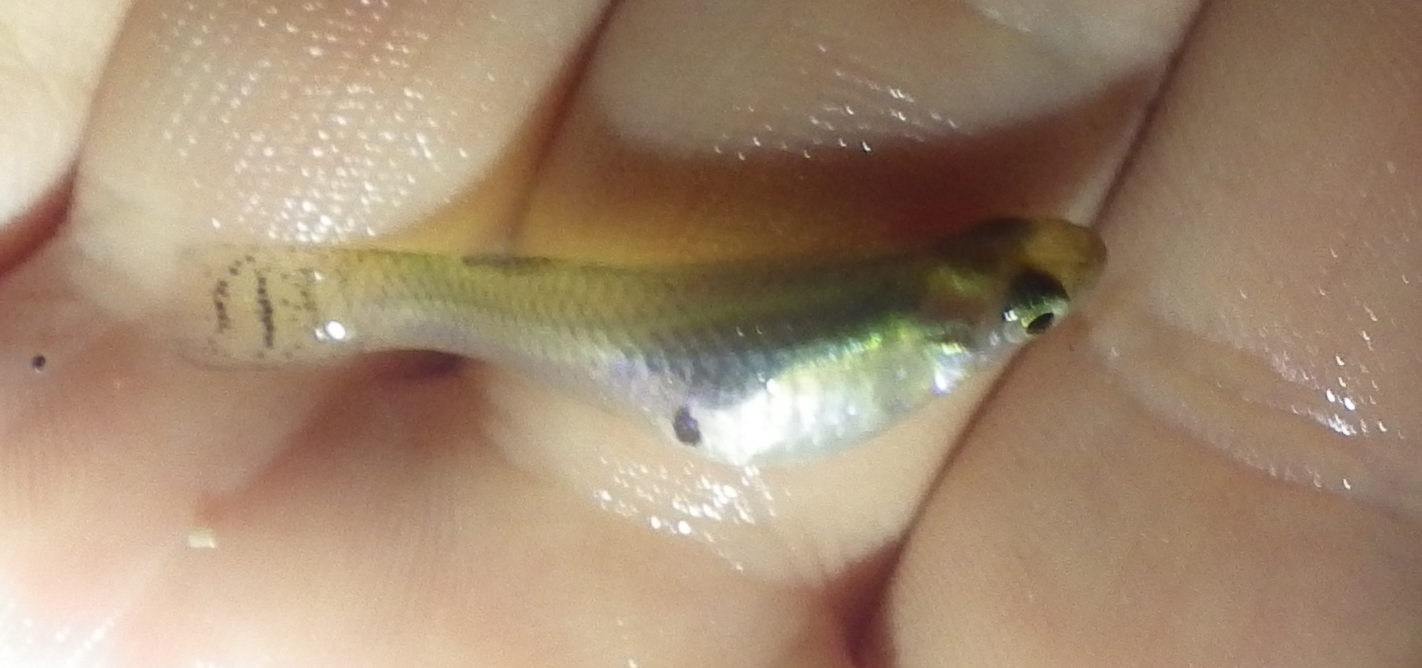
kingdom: Animalia
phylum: Chordata
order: Cyprinodontiformes
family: Poeciliidae
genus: Gambusia
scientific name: Gambusia holbrooki
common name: Eastern mosquitofish
